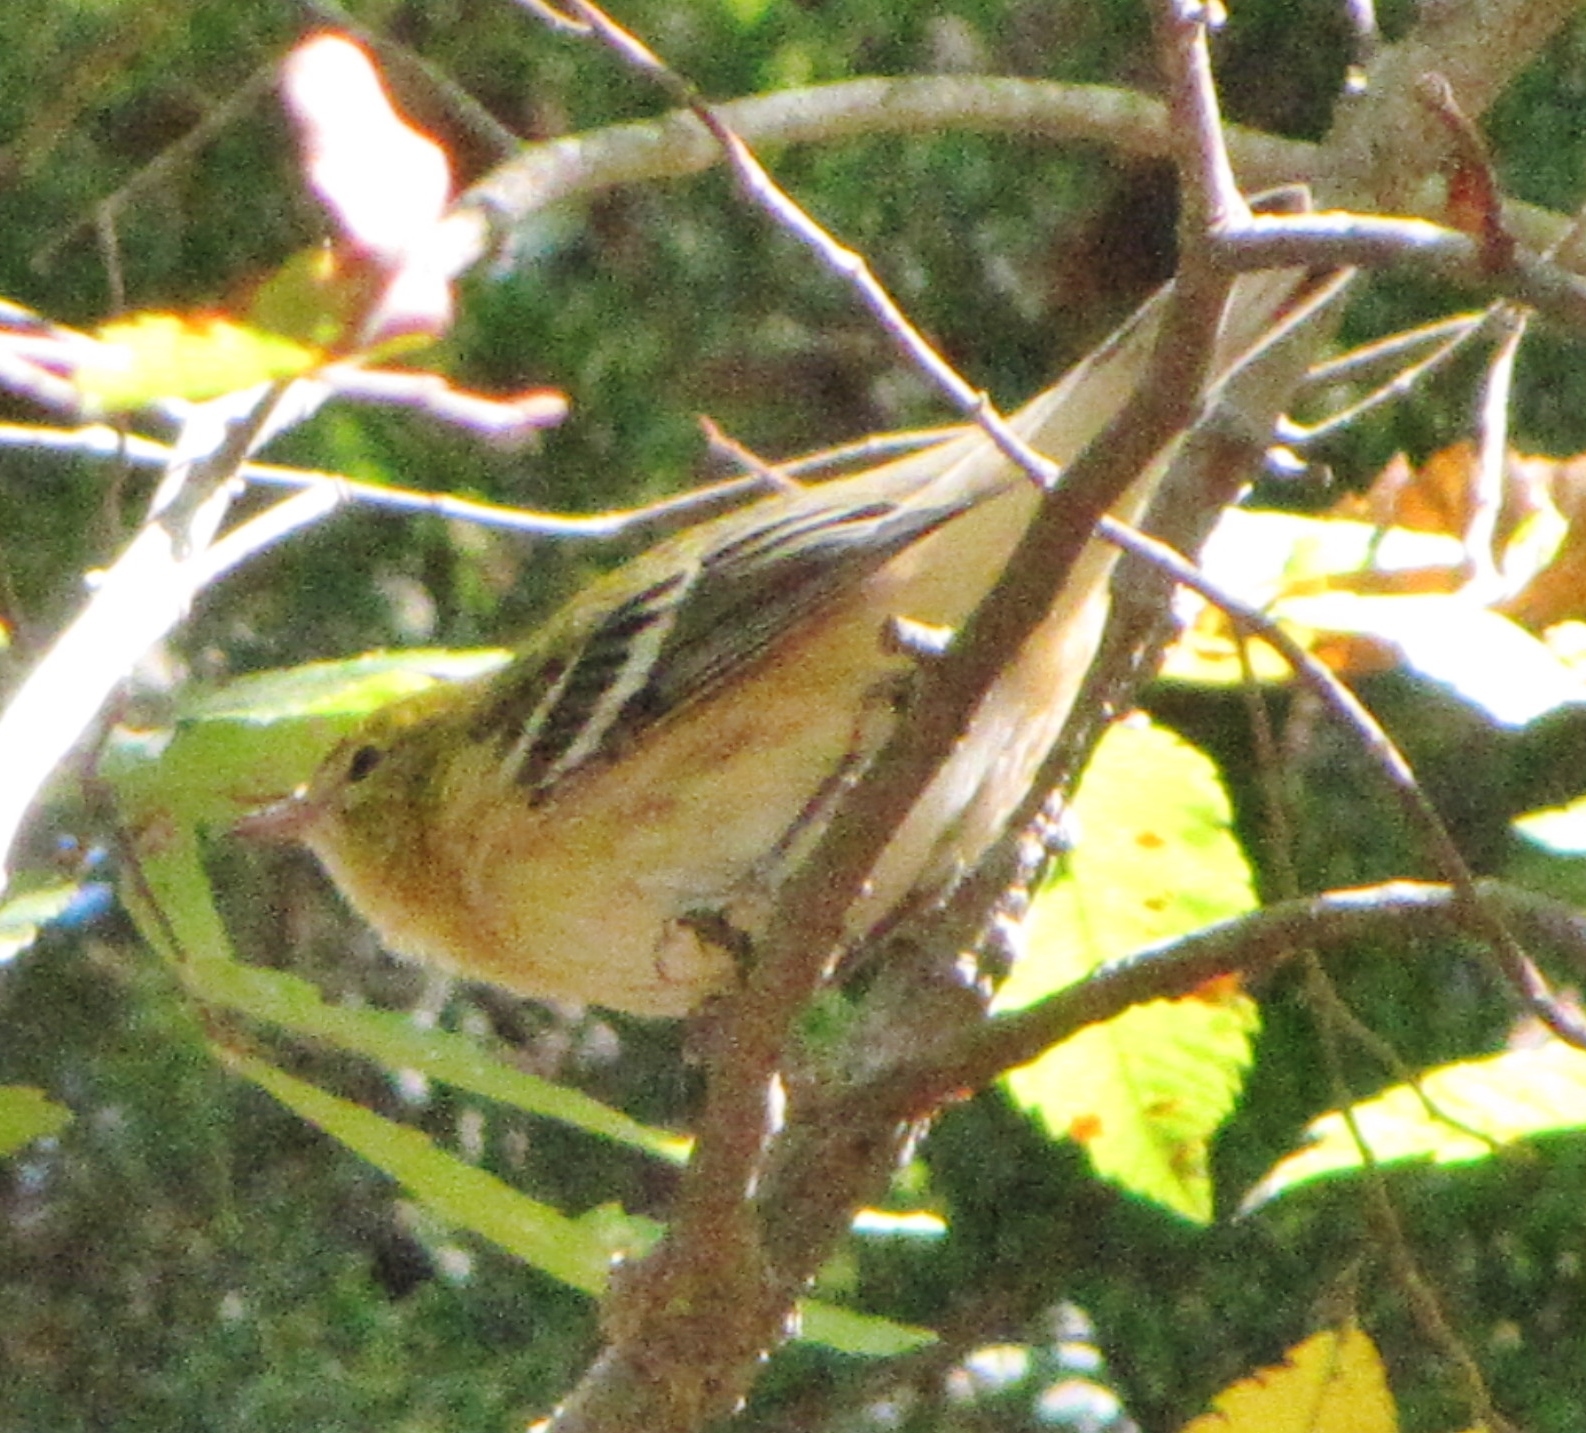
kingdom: Animalia
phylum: Chordata
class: Aves
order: Passeriformes
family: Parulidae
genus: Setophaga
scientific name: Setophaga castanea
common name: Bay-breasted warbler
